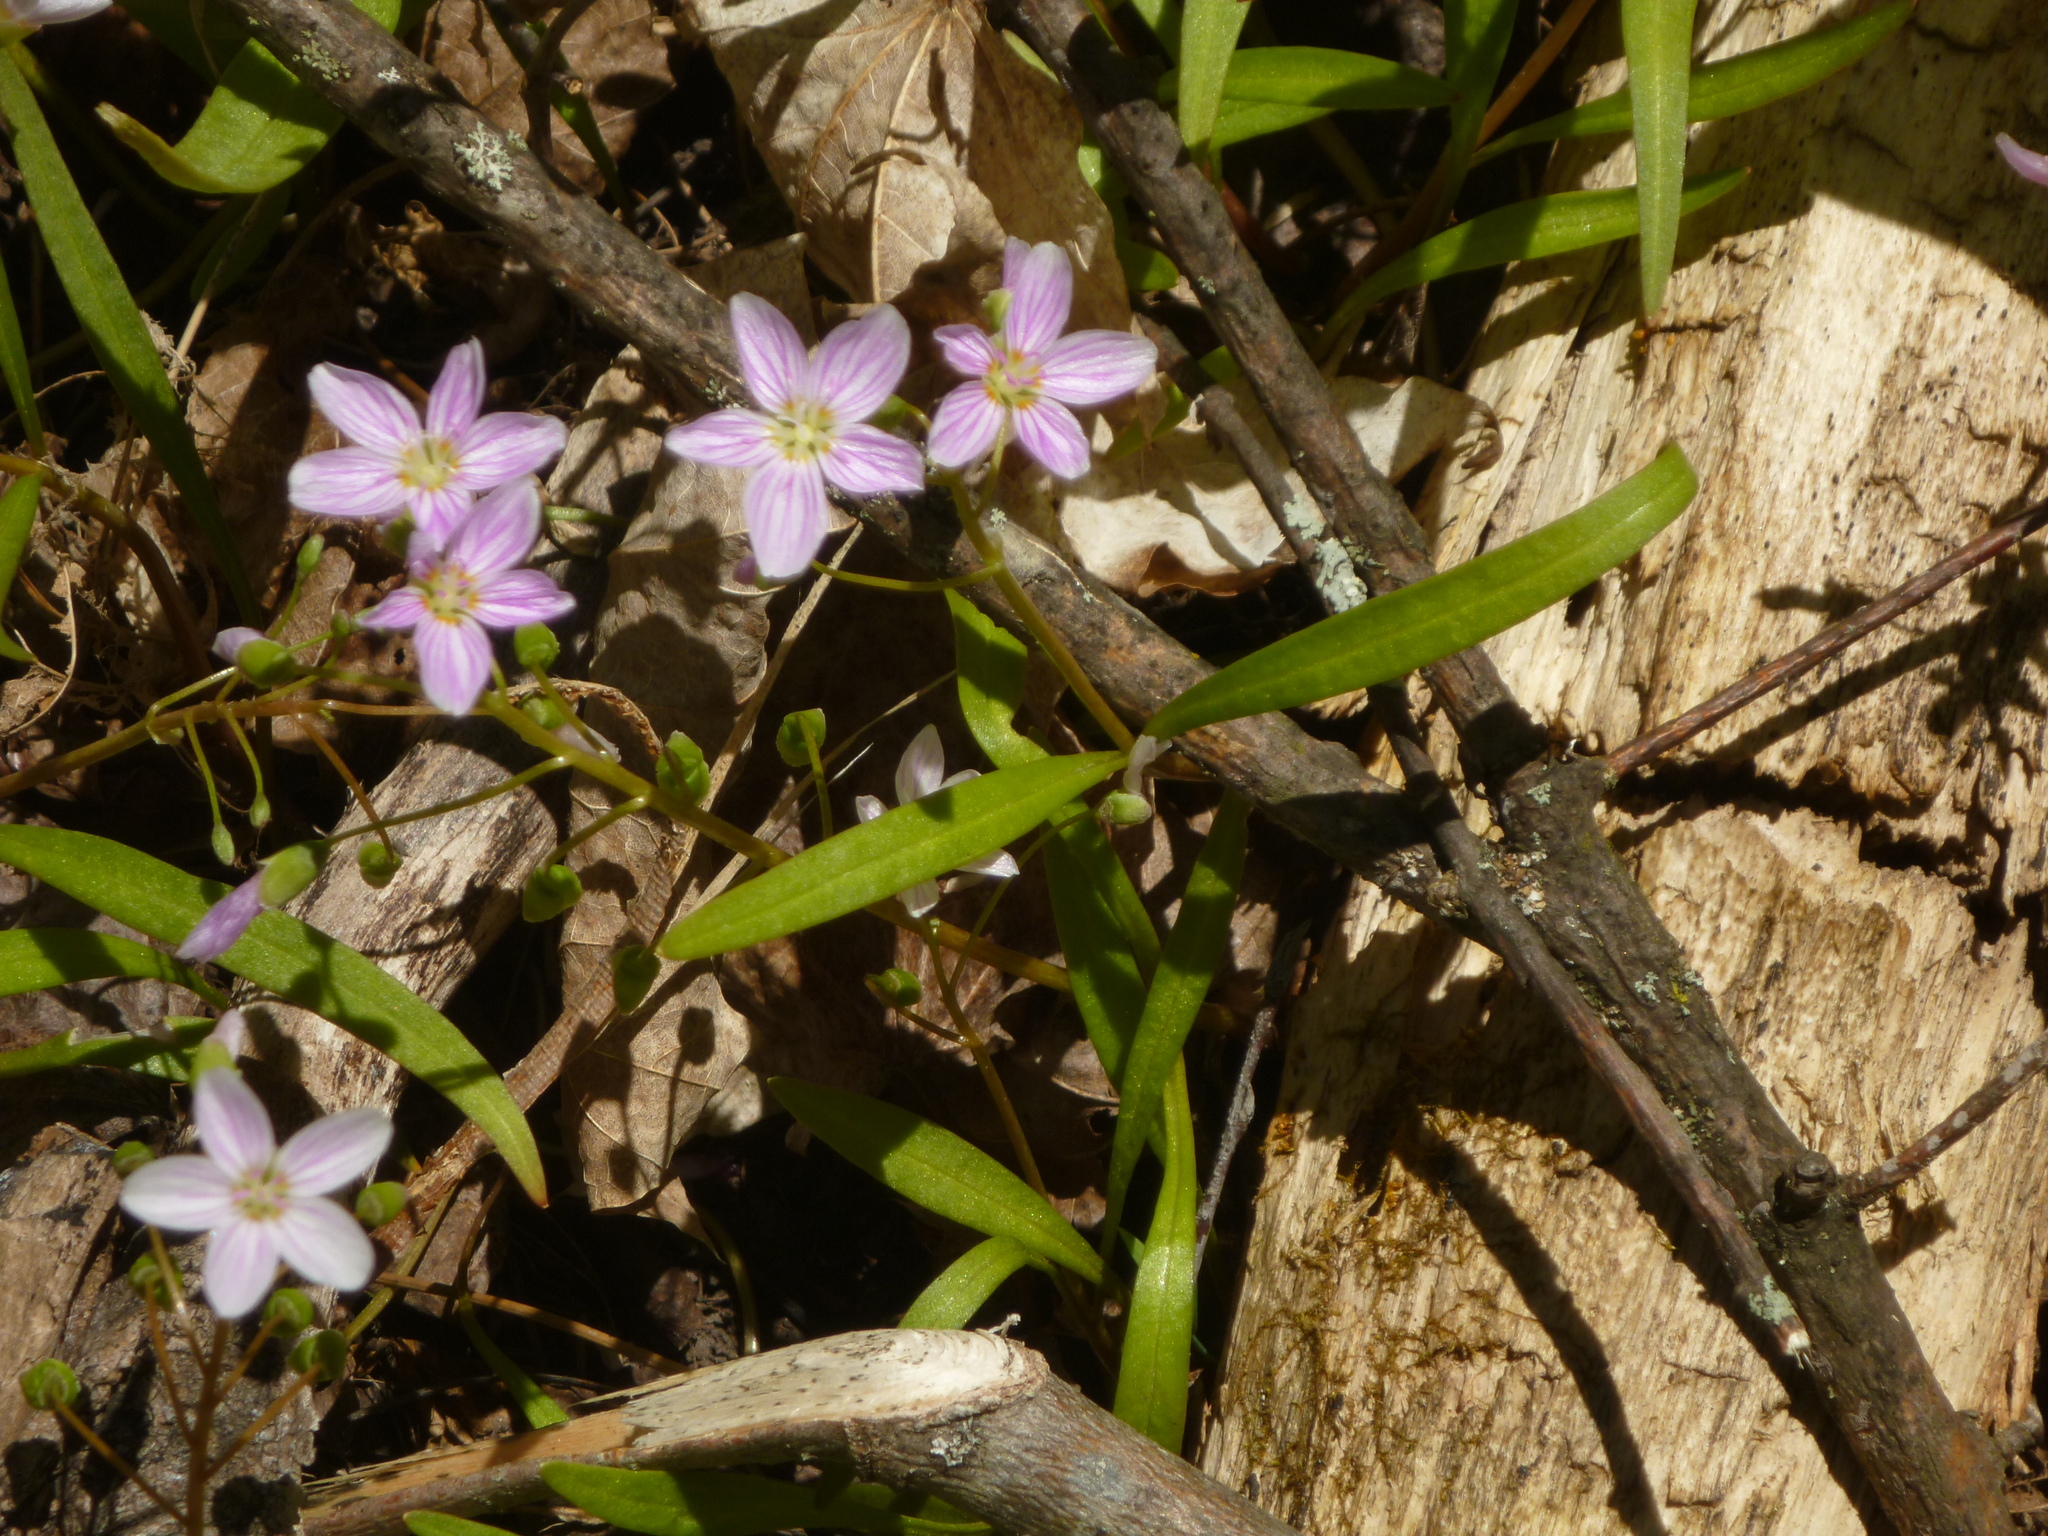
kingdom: Plantae
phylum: Tracheophyta
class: Magnoliopsida
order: Caryophyllales
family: Montiaceae
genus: Claytonia
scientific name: Claytonia virginica
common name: Virginia springbeauty
